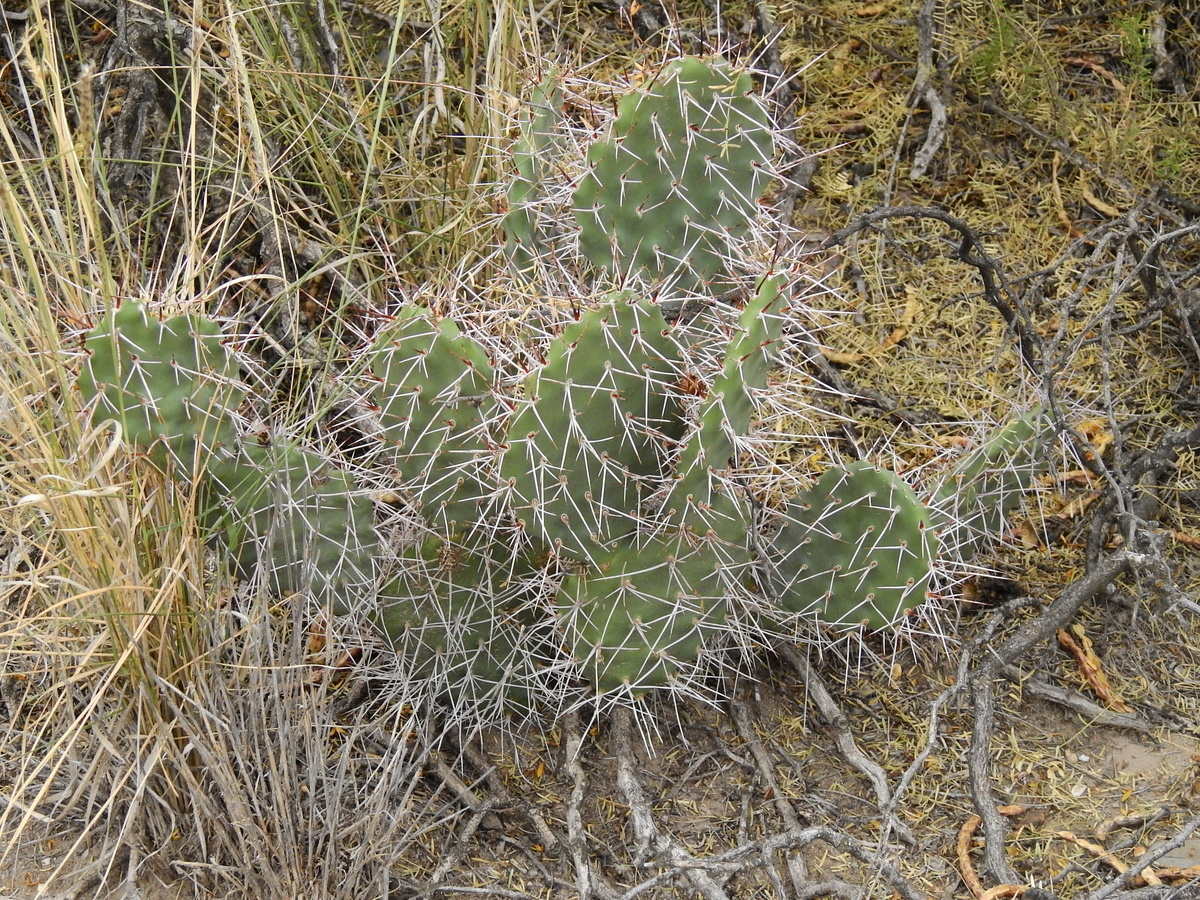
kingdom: Plantae
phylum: Tracheophyta
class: Magnoliopsida
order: Caryophyllales
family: Cactaceae
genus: Opuntia
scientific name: Opuntia sulphurea
